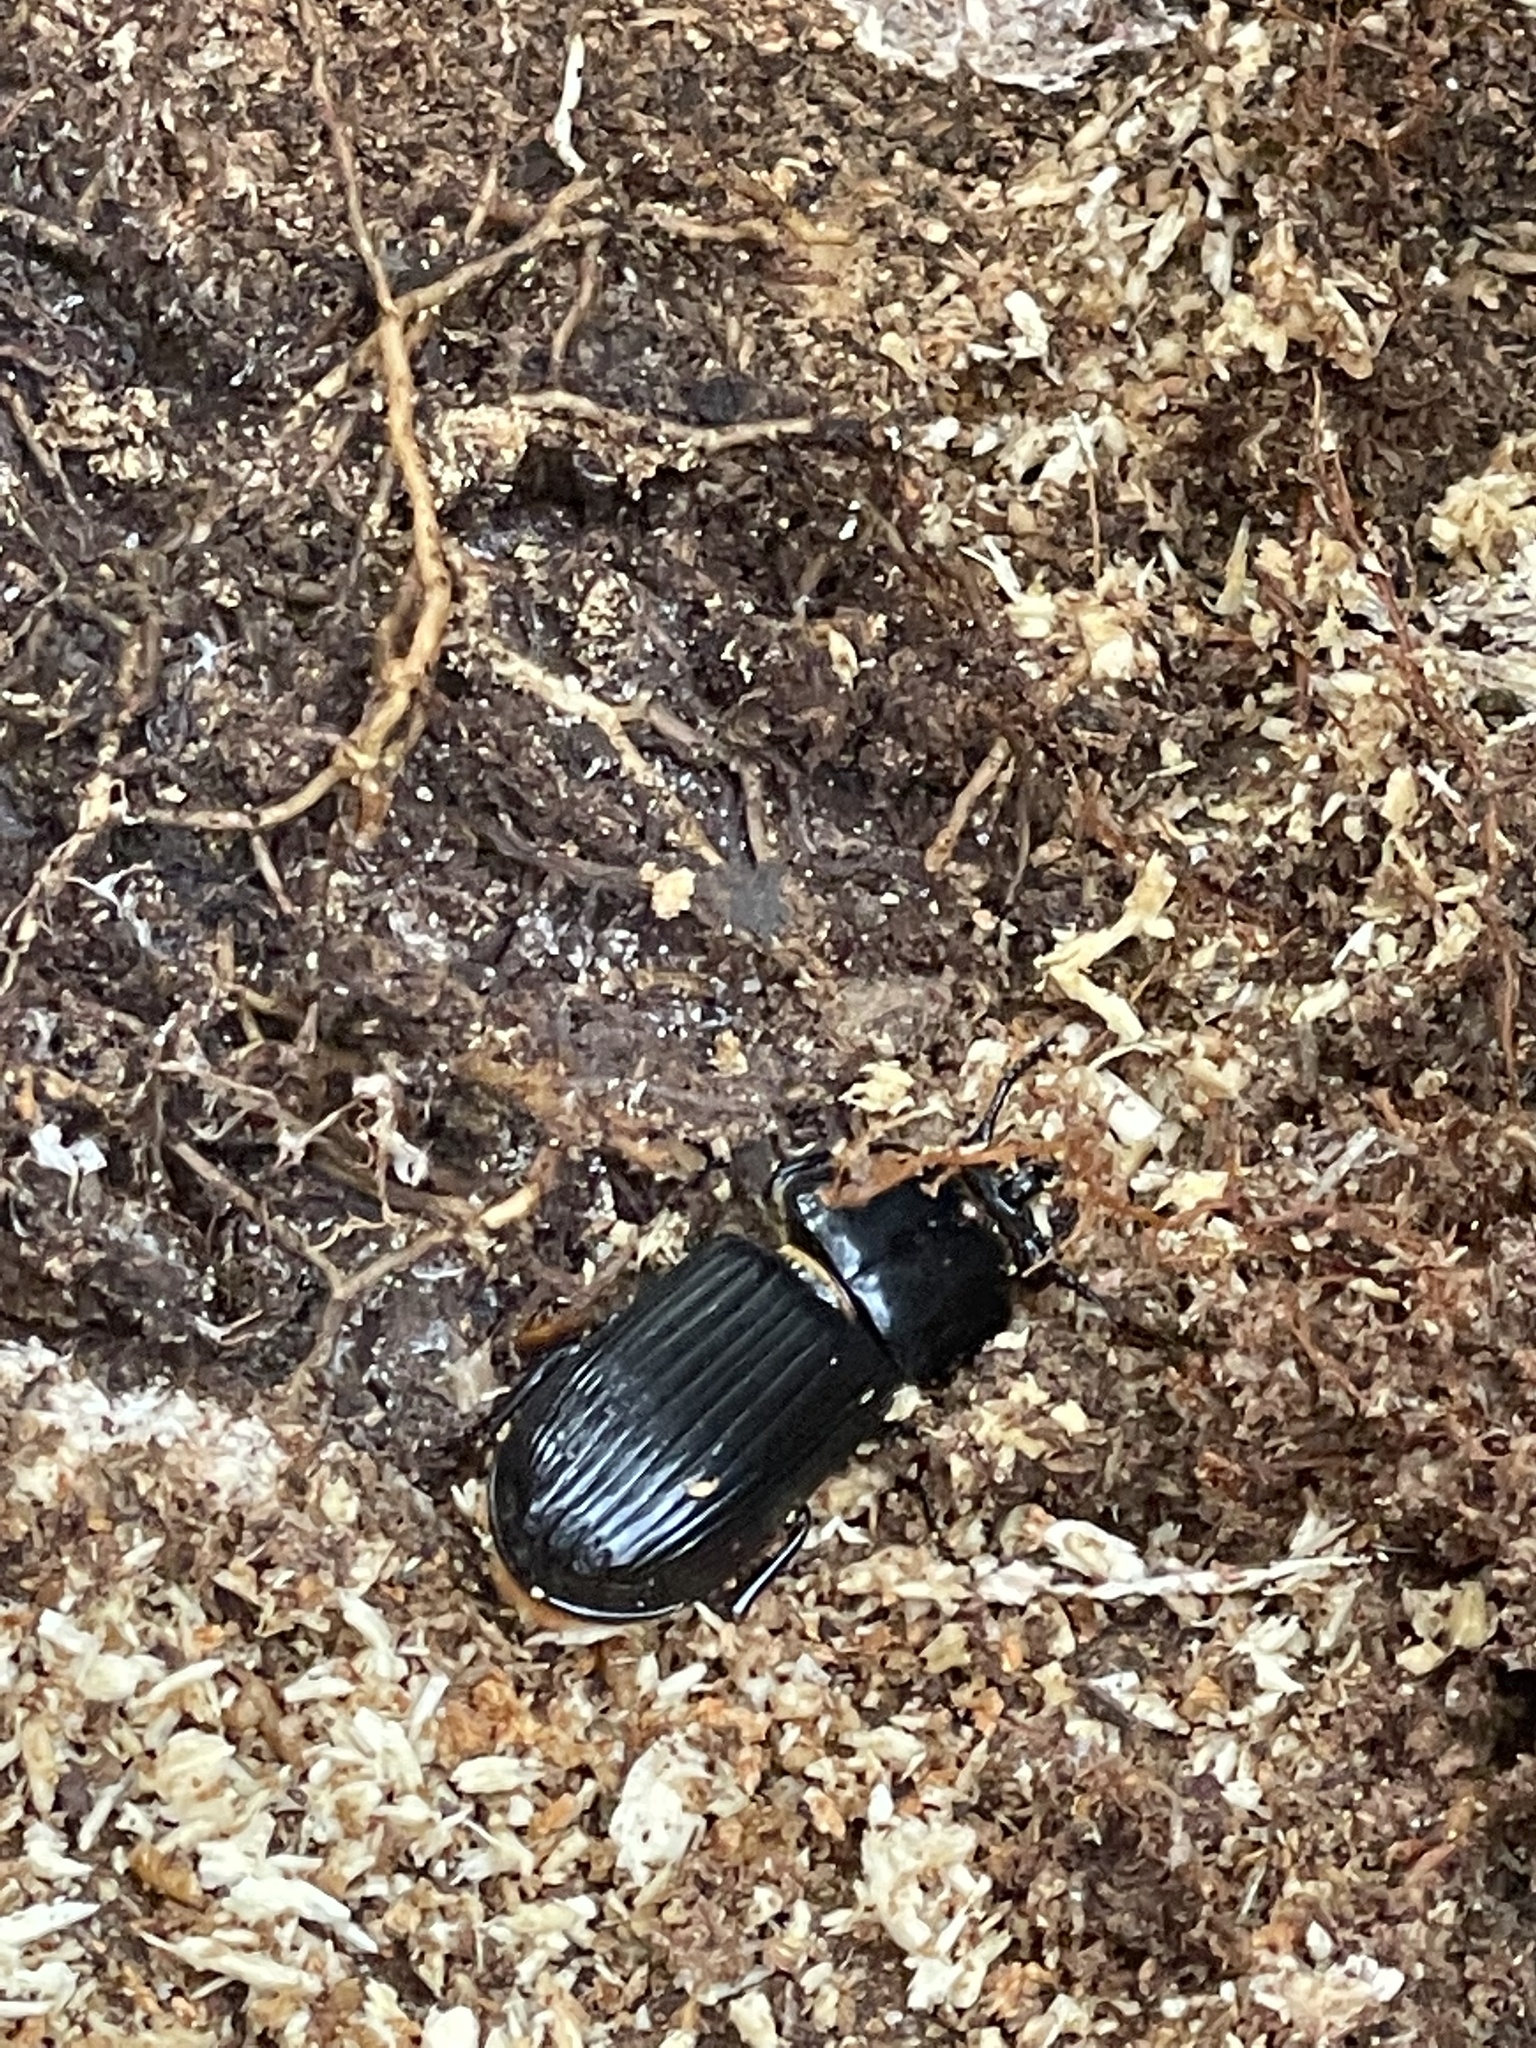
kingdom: Animalia
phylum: Arthropoda
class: Insecta
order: Coleoptera
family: Passalidae
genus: Odontotaenius
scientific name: Odontotaenius disjunctus
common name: Patent leather beetle
